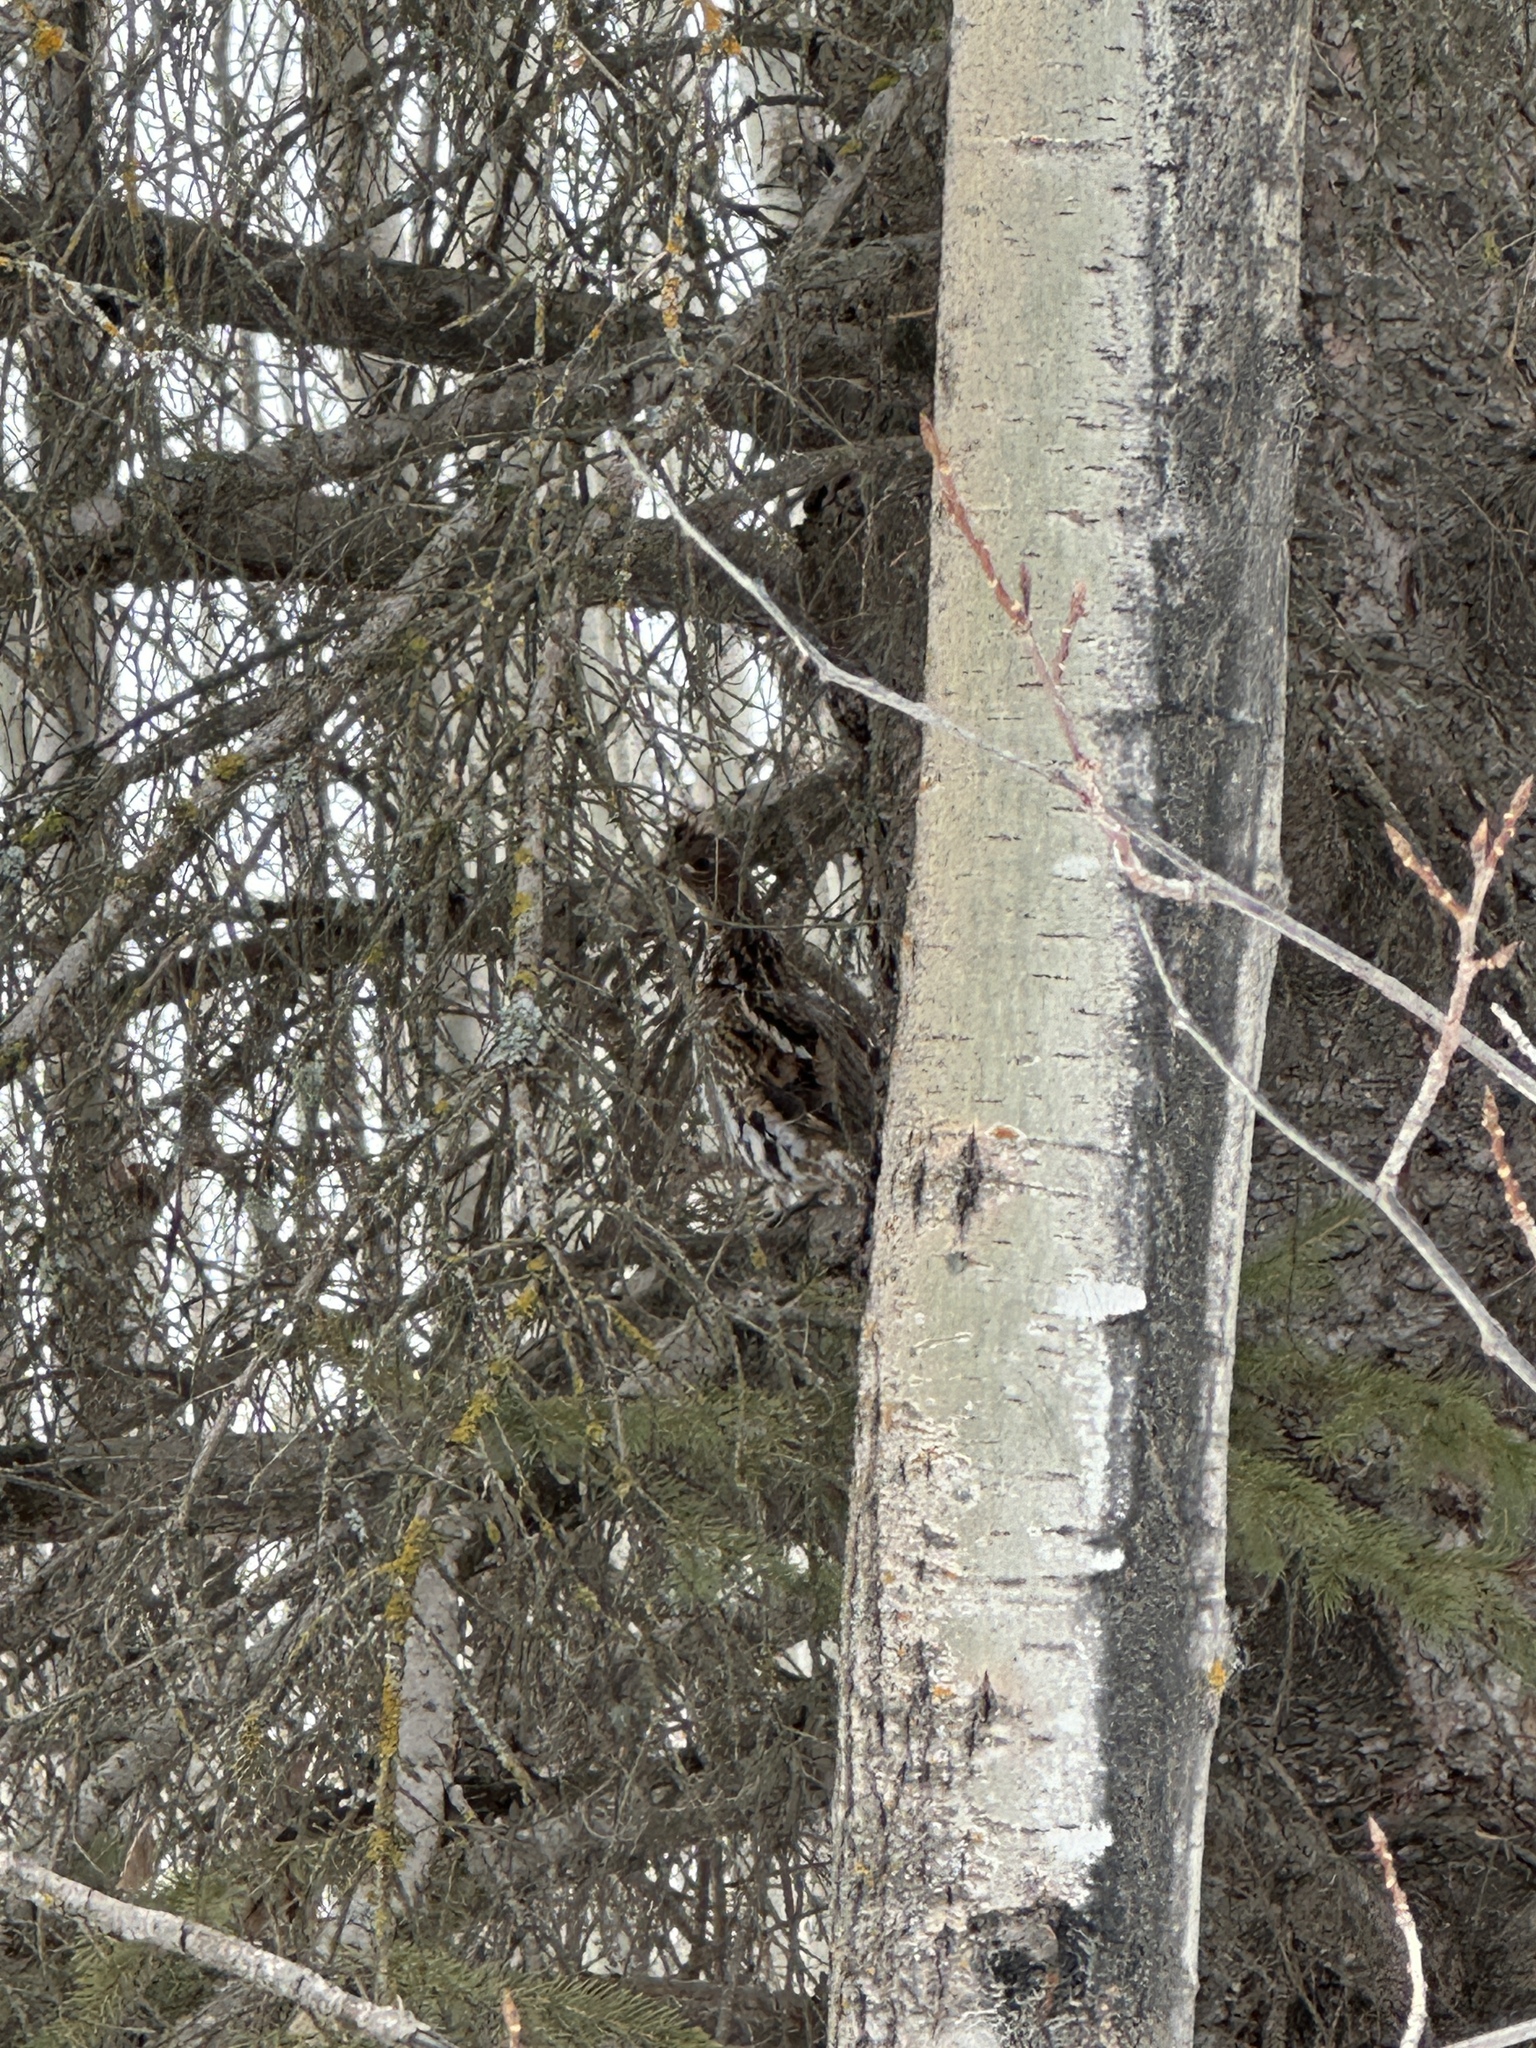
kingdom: Animalia
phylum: Chordata
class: Aves
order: Galliformes
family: Phasianidae
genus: Bonasa
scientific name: Bonasa umbellus
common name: Ruffed grouse
